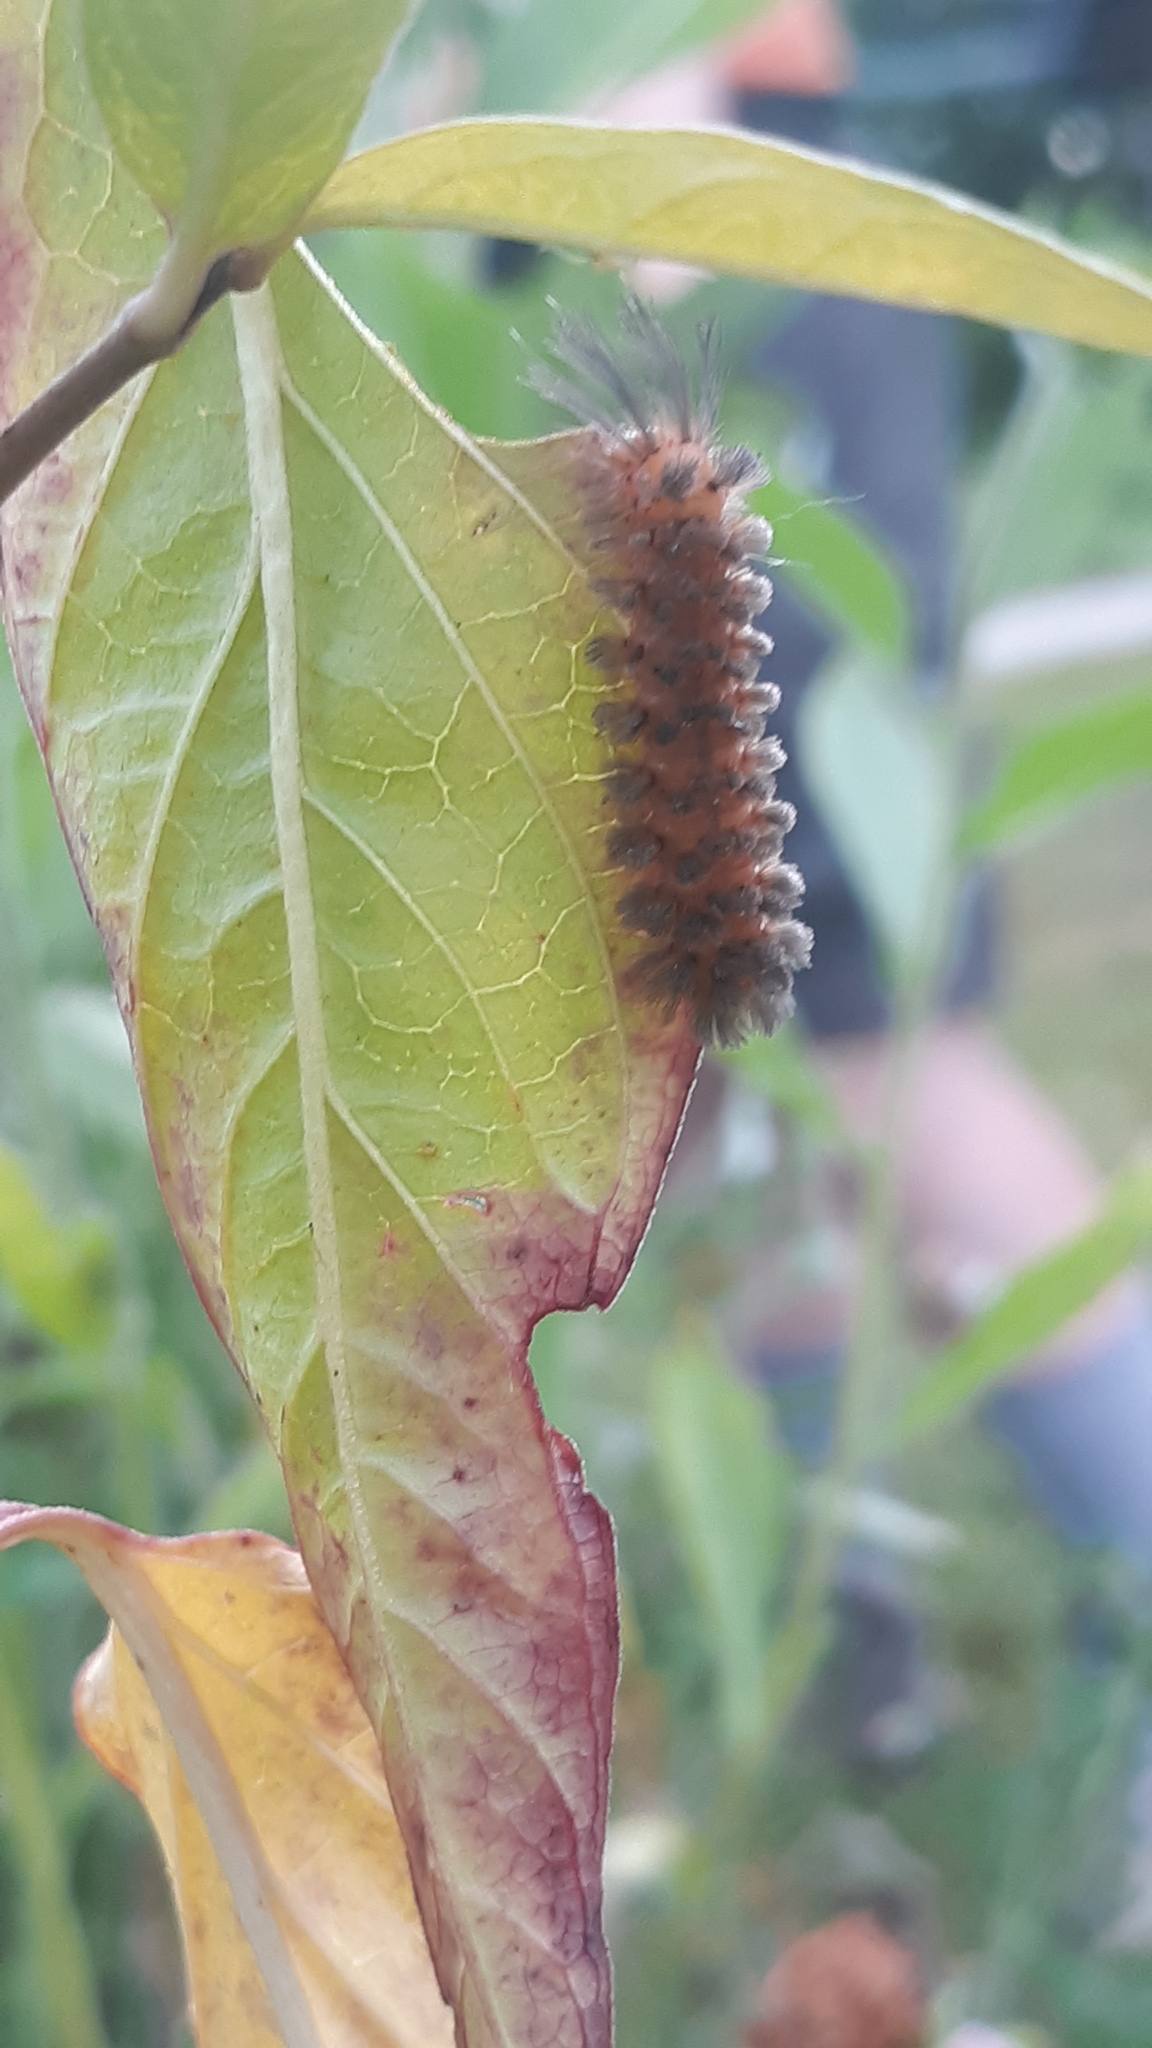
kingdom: Animalia
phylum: Arthropoda
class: Insecta
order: Lepidoptera
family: Erebidae
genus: Cycnia
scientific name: Cycnia collaris
